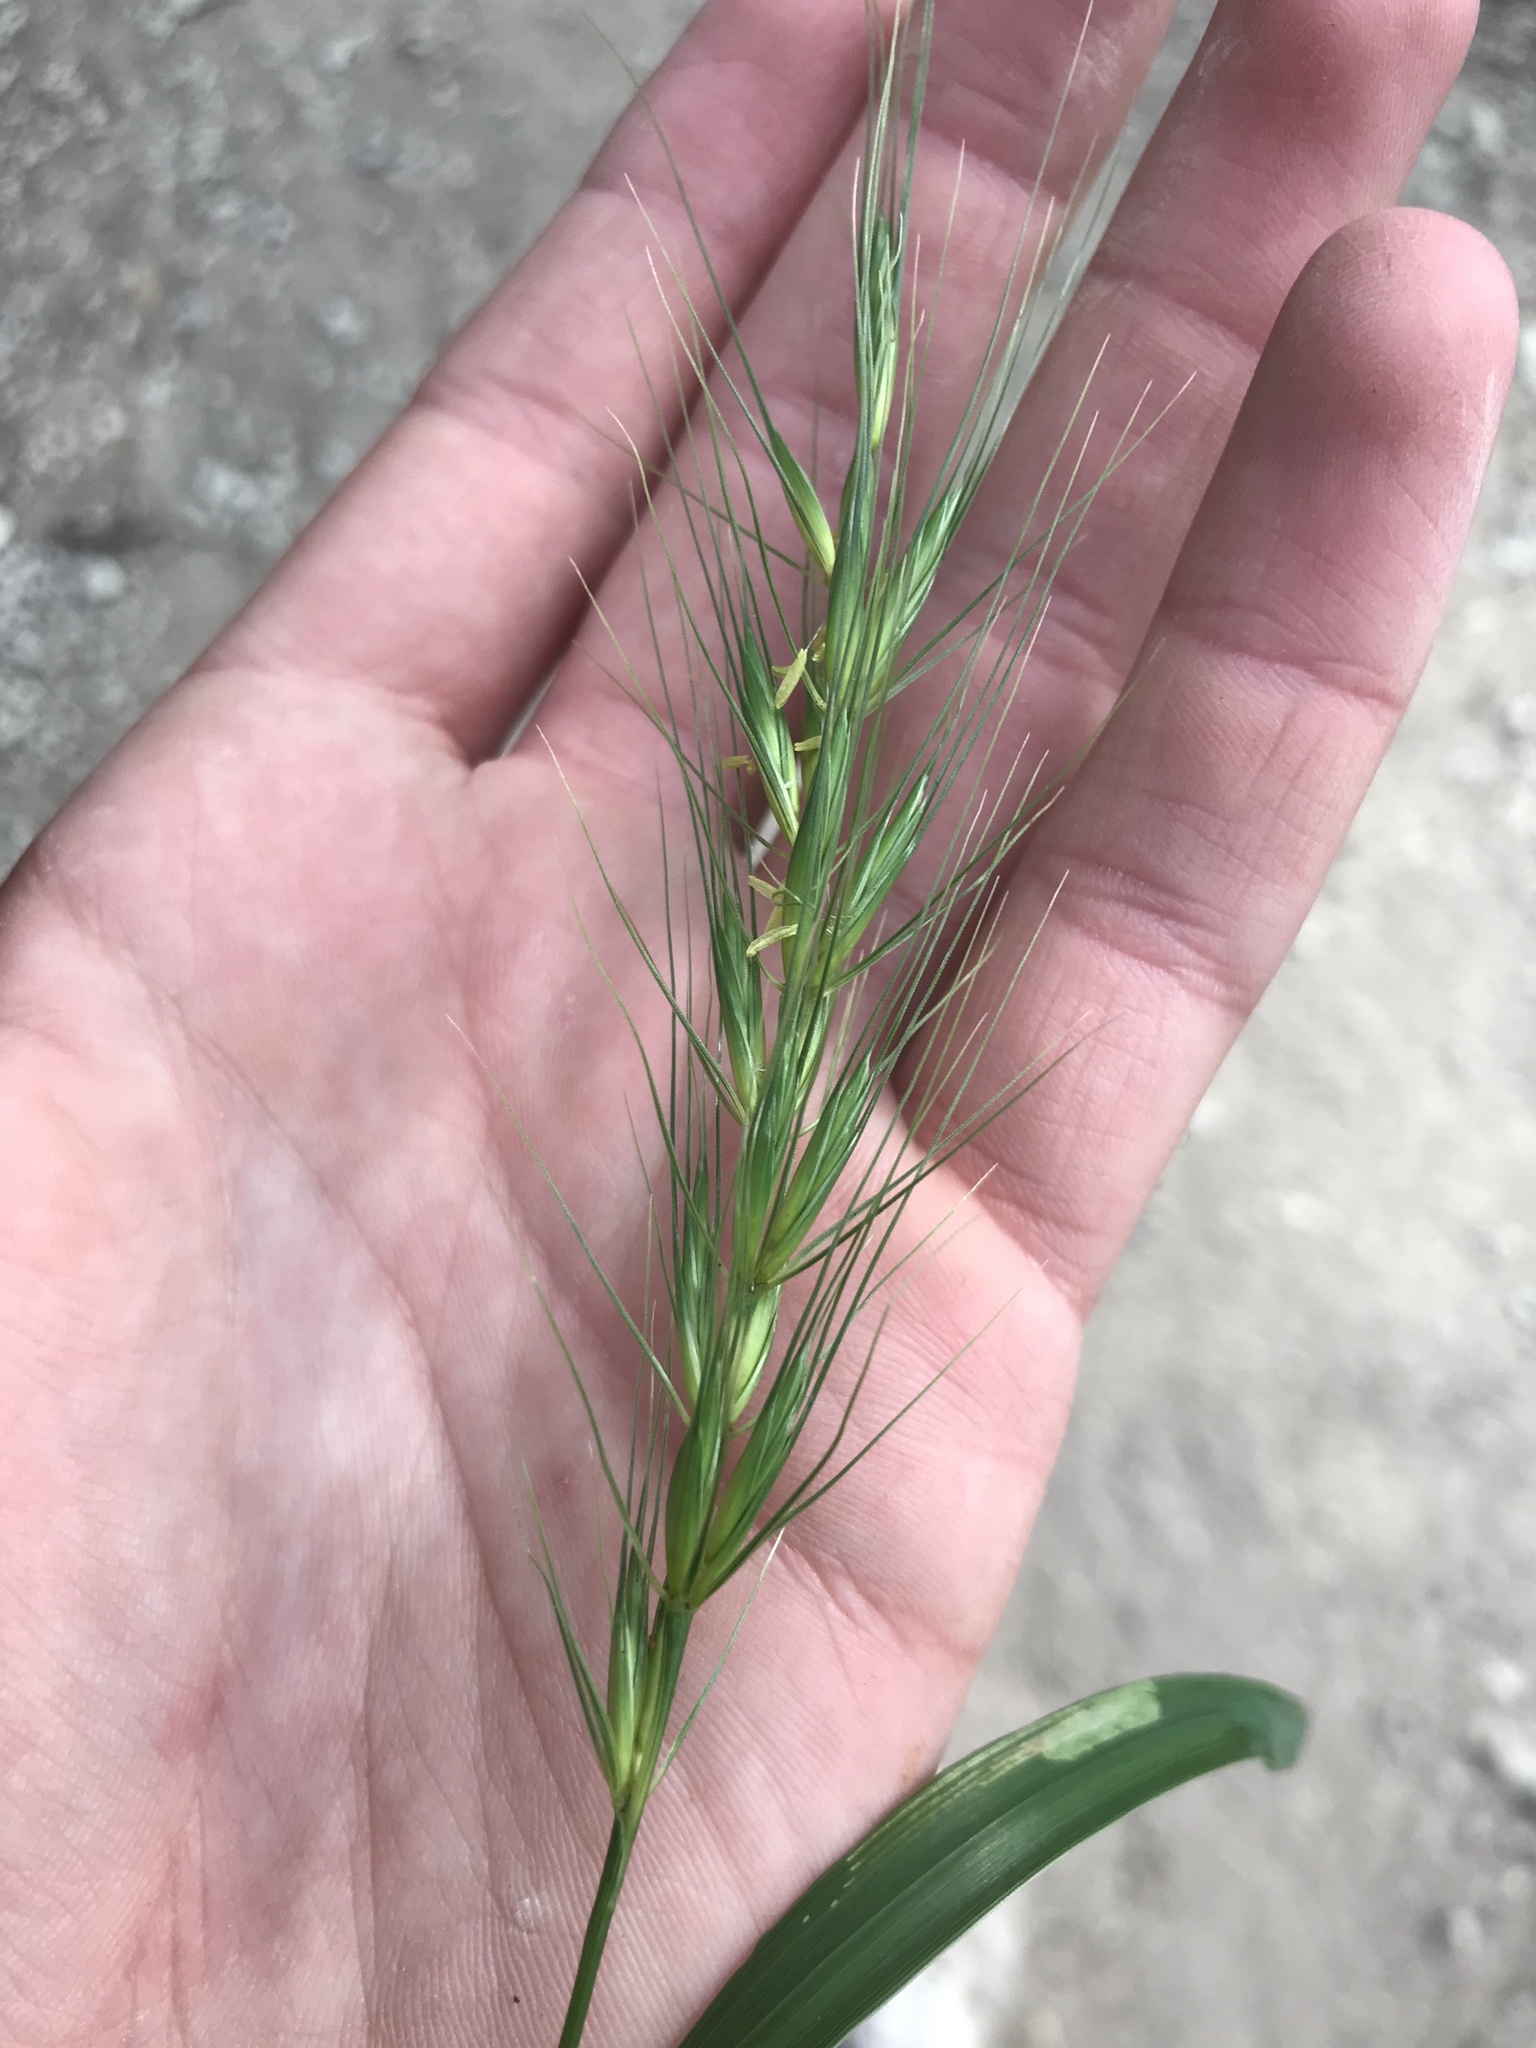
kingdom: Plantae
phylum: Tracheophyta
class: Liliopsida
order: Poales
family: Poaceae
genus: Elymus
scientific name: Elymus interruptus
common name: Southwestern wild rye
